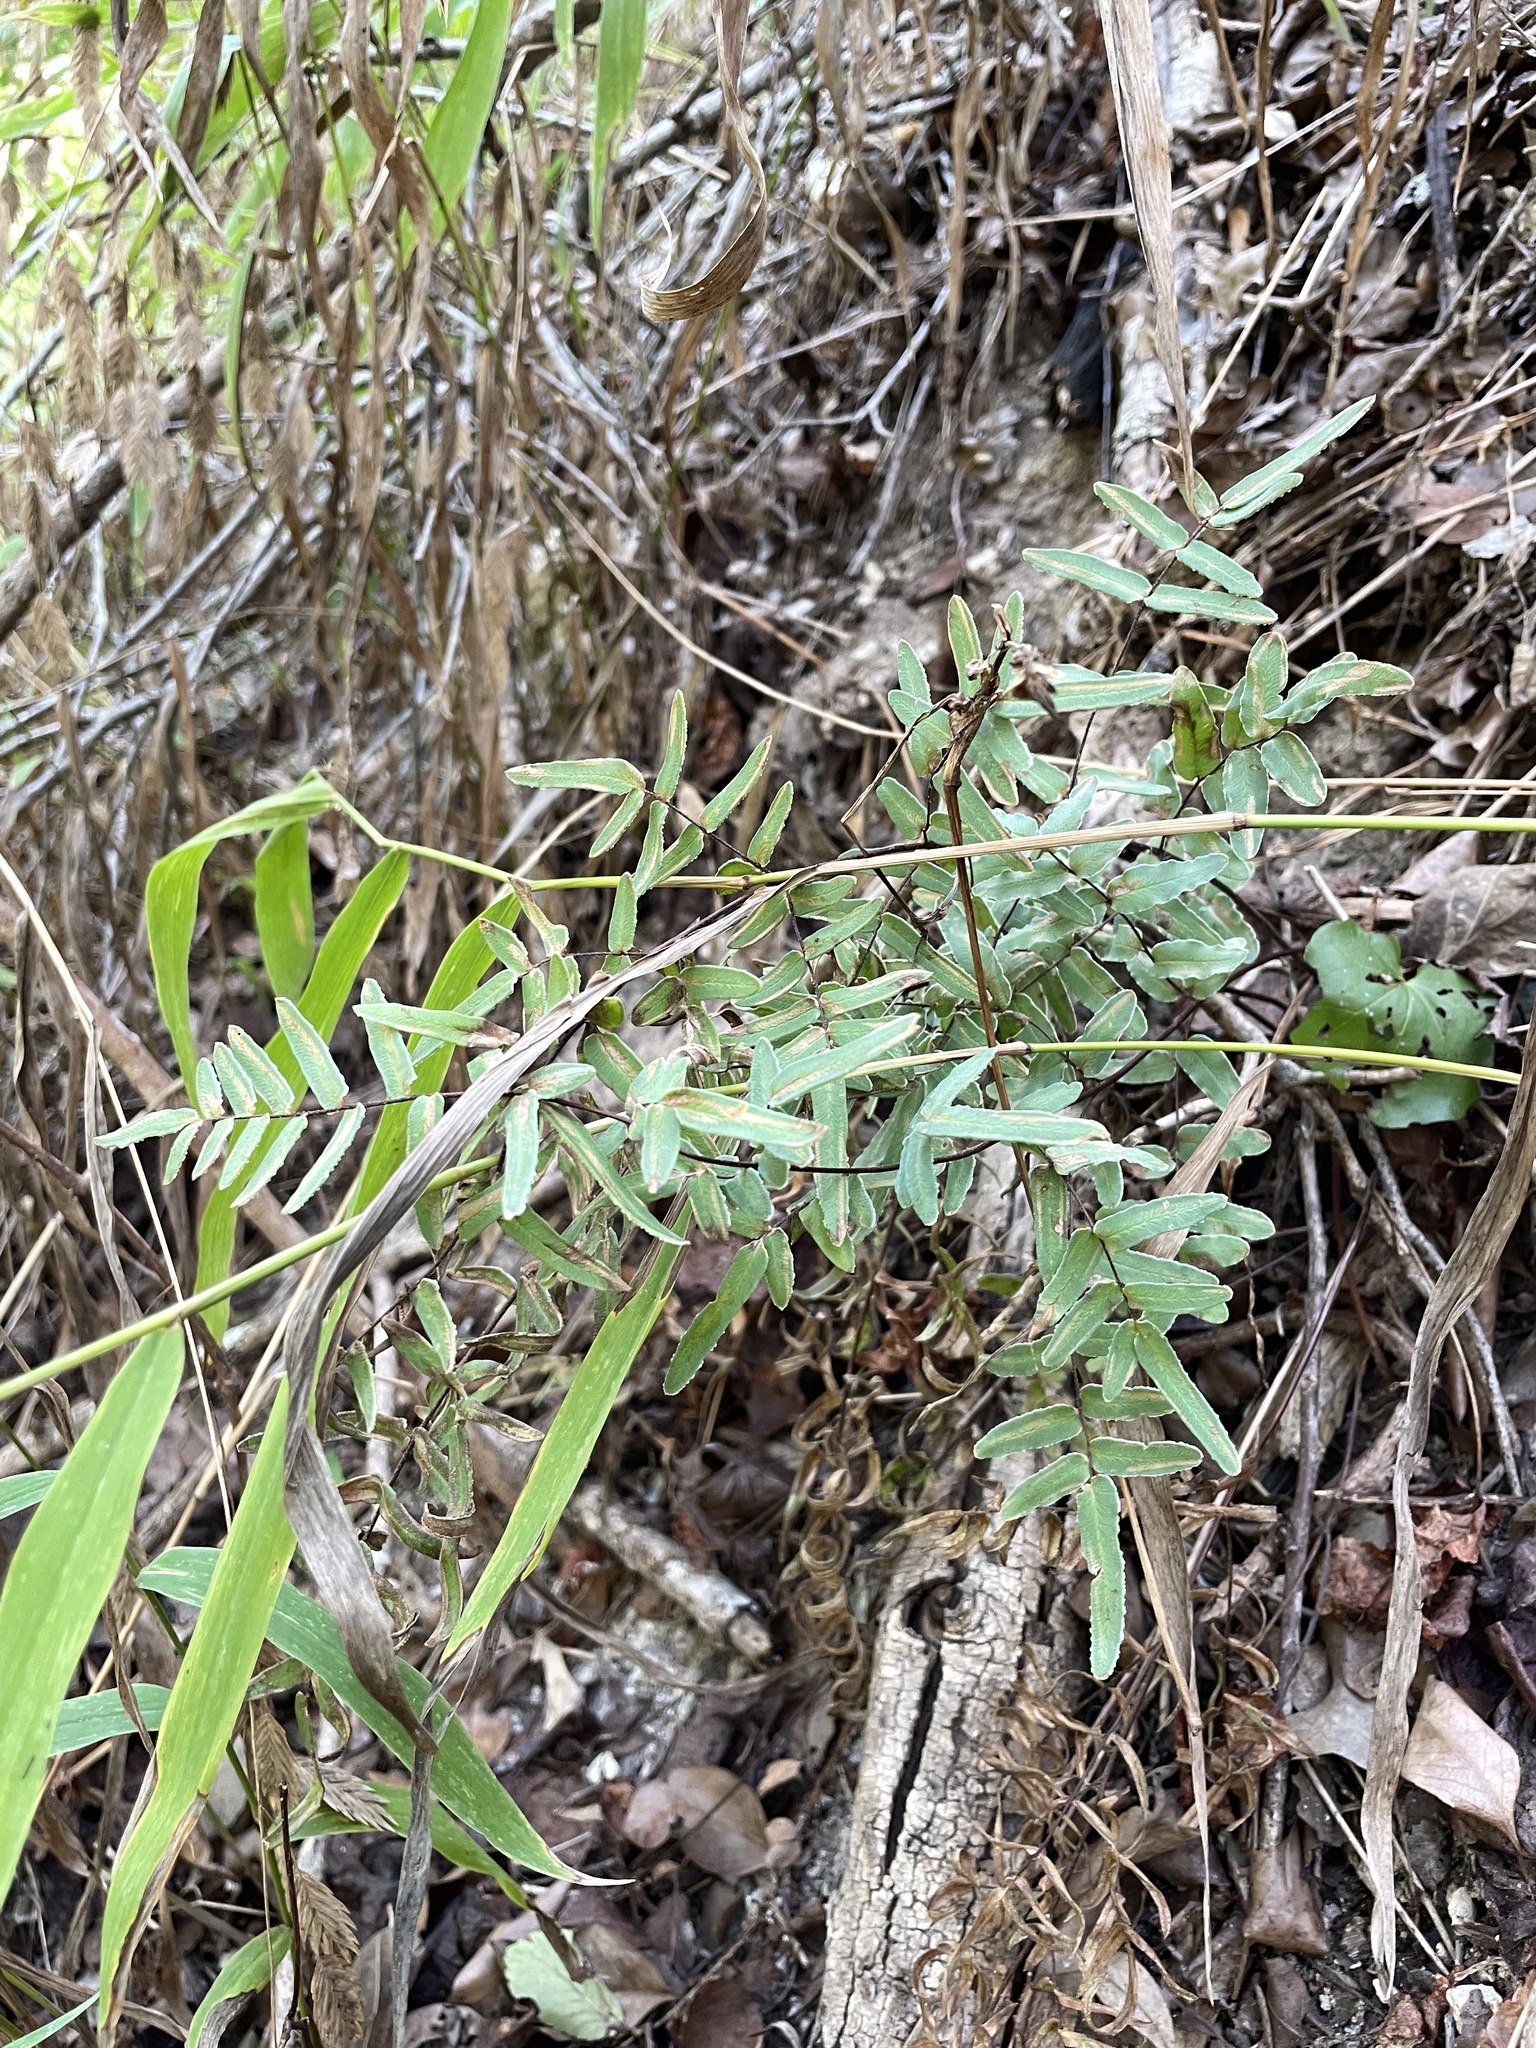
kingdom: Plantae
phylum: Tracheophyta
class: Polypodiopsida
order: Polypodiales
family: Pteridaceae
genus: Pellaea
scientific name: Pellaea atropurpurea
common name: Hairy cliffbrake
